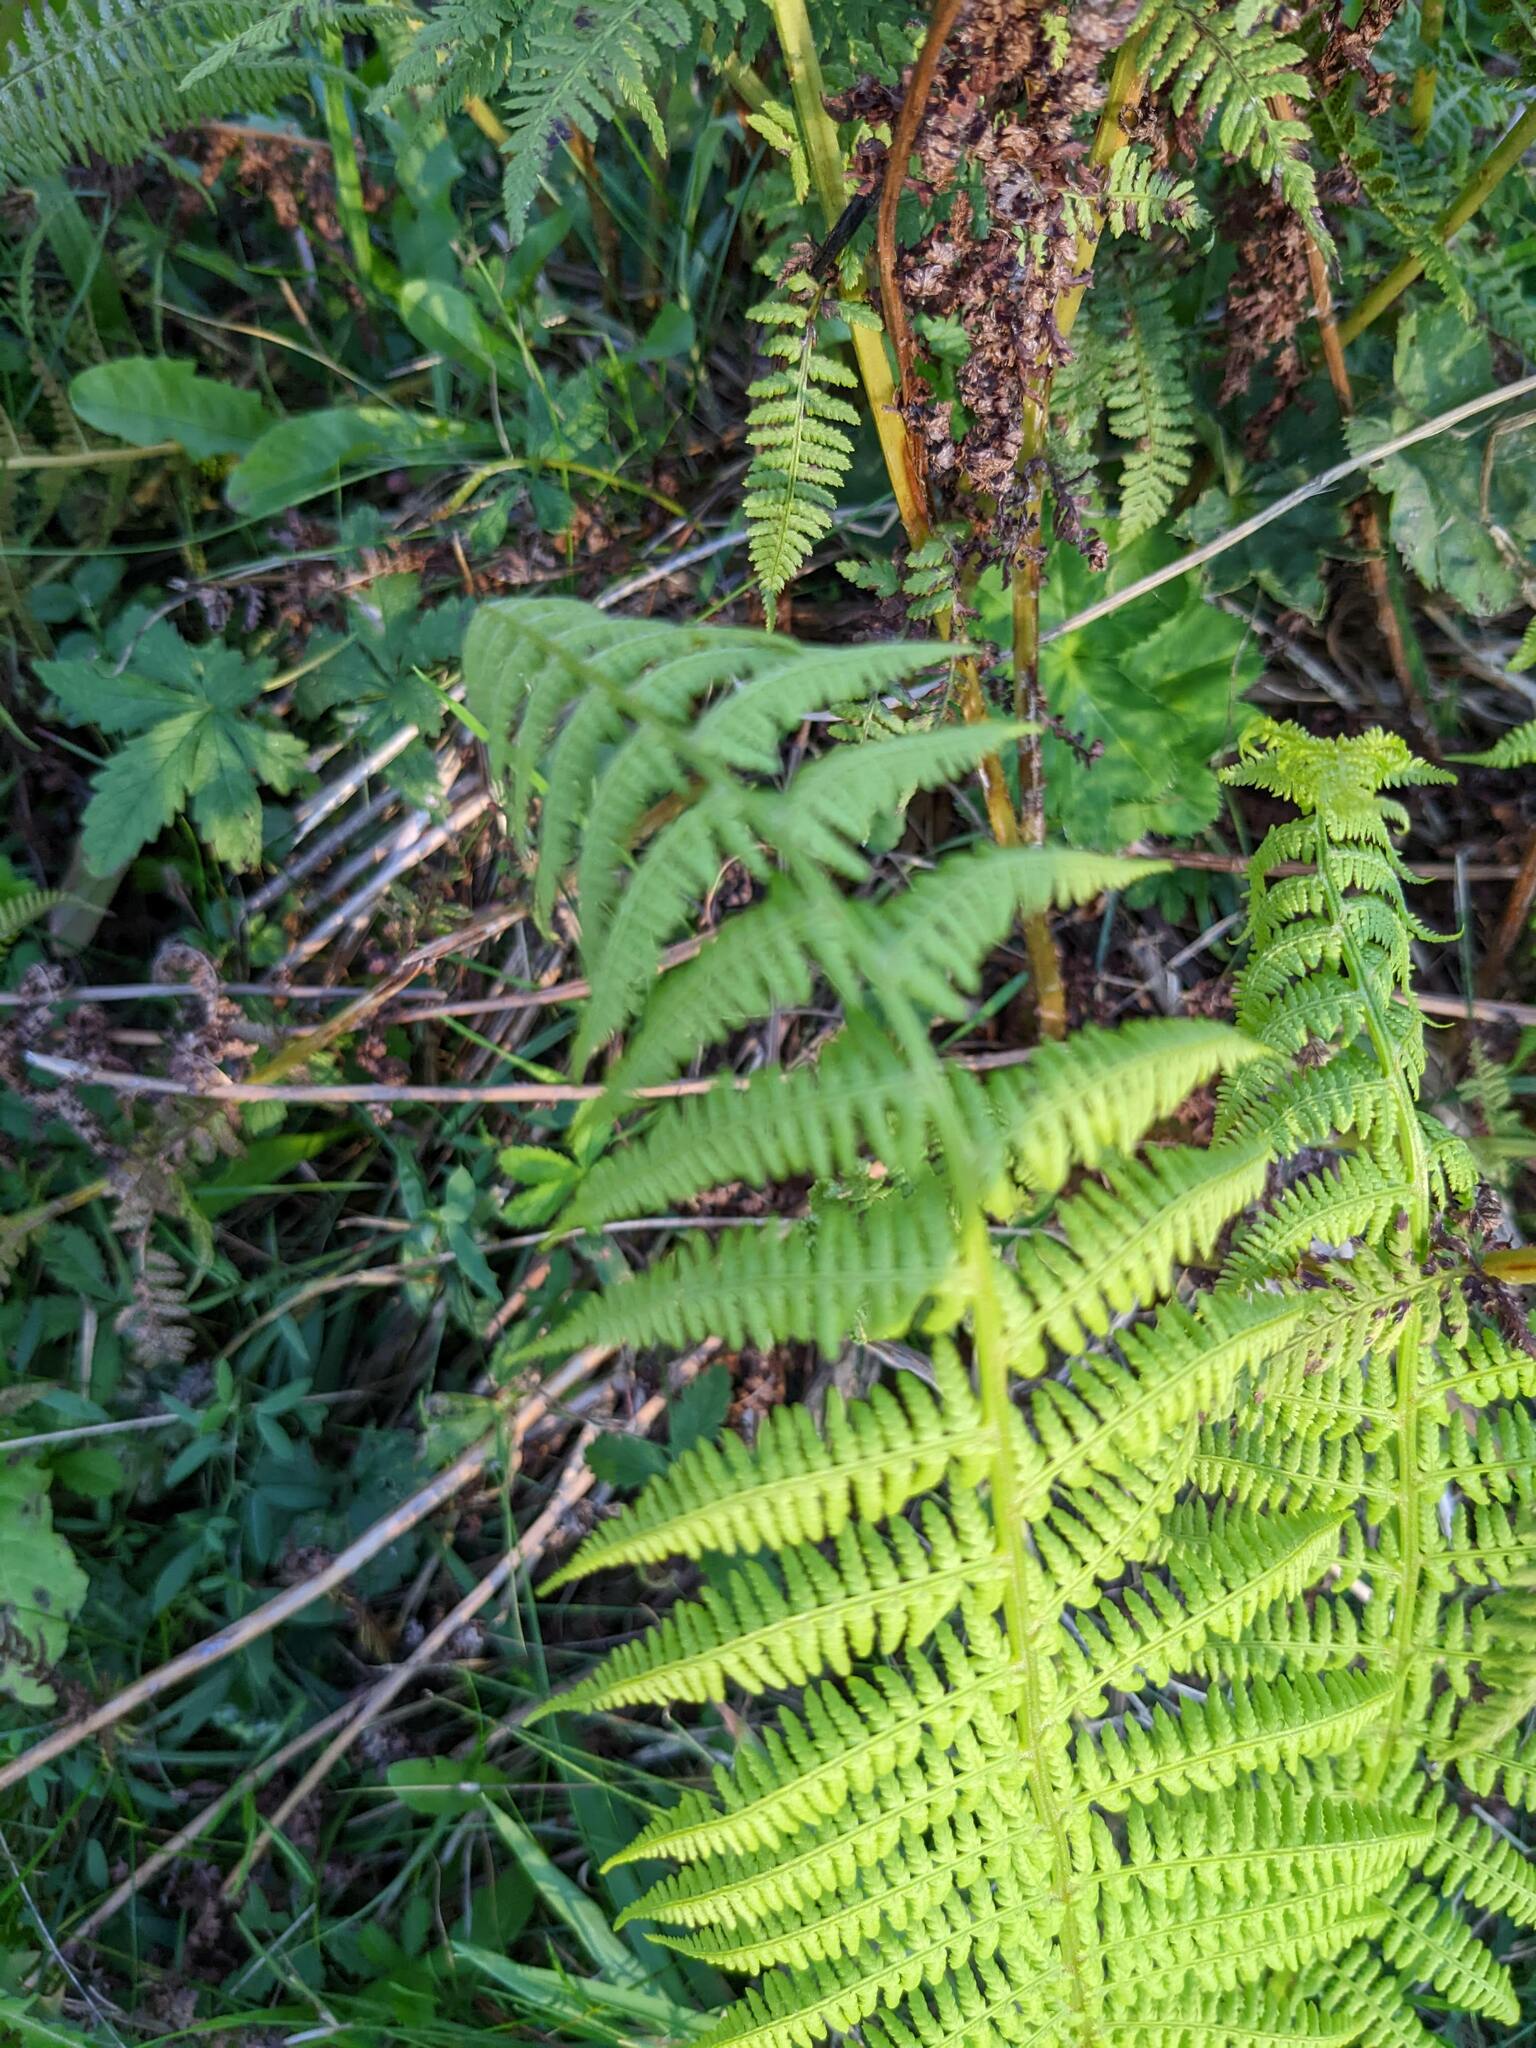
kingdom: Plantae
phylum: Tracheophyta
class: Polypodiopsida
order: Polypodiales
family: Athyriaceae
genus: Athyrium
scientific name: Athyrium filix-femina
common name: Lady fern
